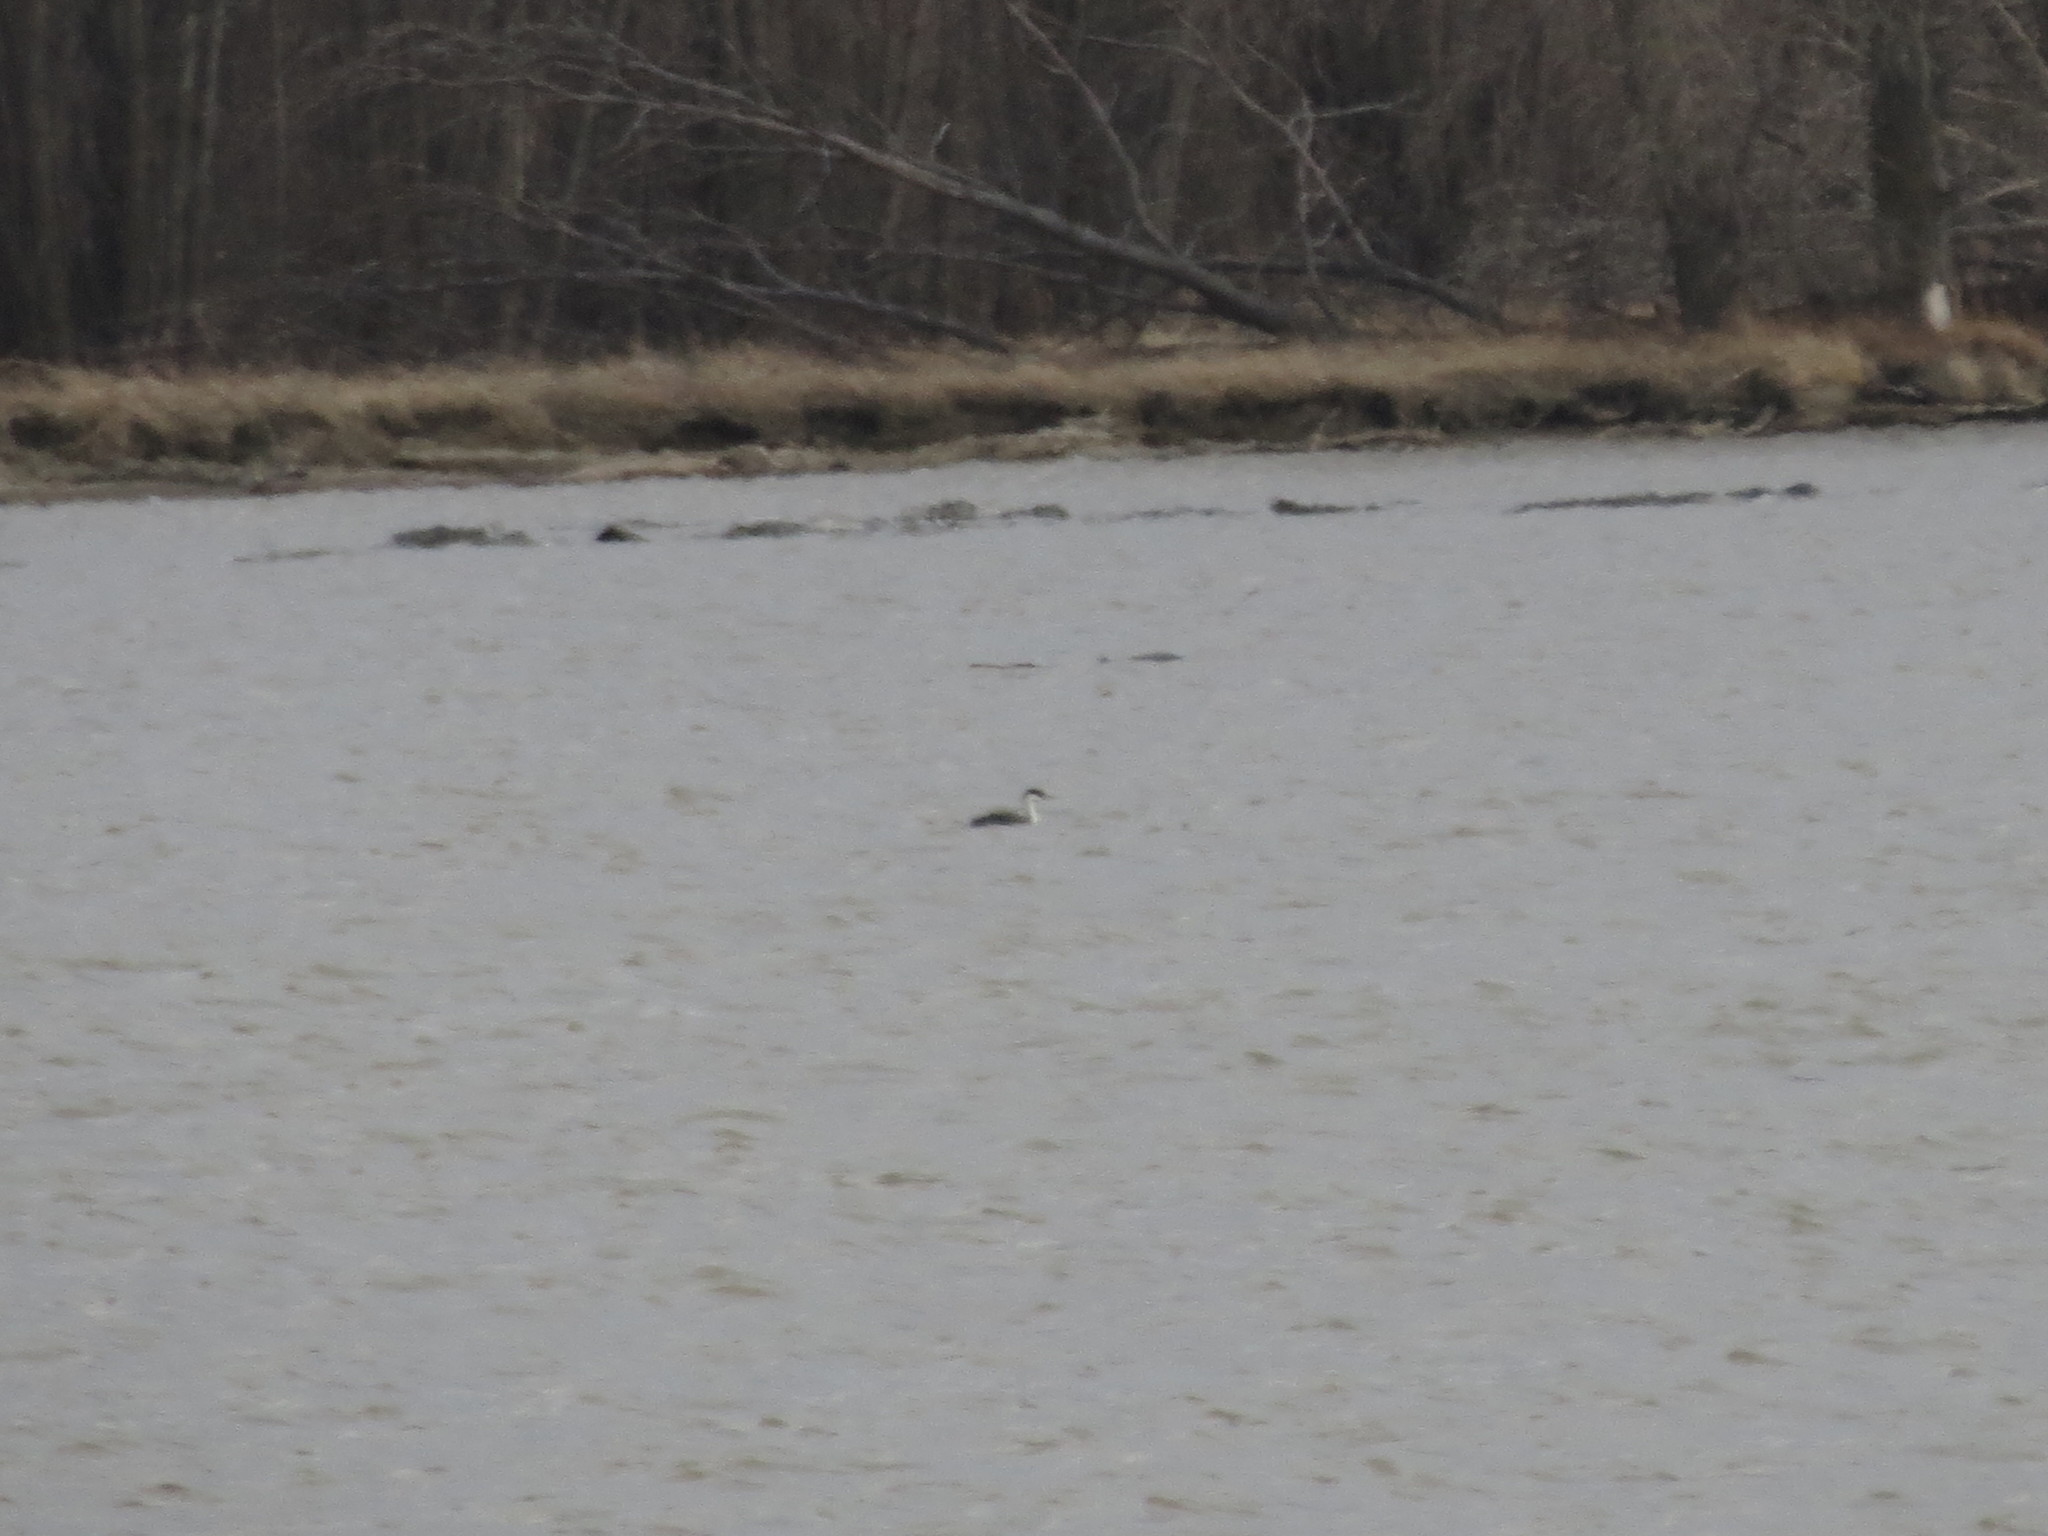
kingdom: Animalia
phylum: Chordata
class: Aves
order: Podicipediformes
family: Podicipedidae
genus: Aechmophorus
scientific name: Aechmophorus occidentalis
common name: Western grebe
